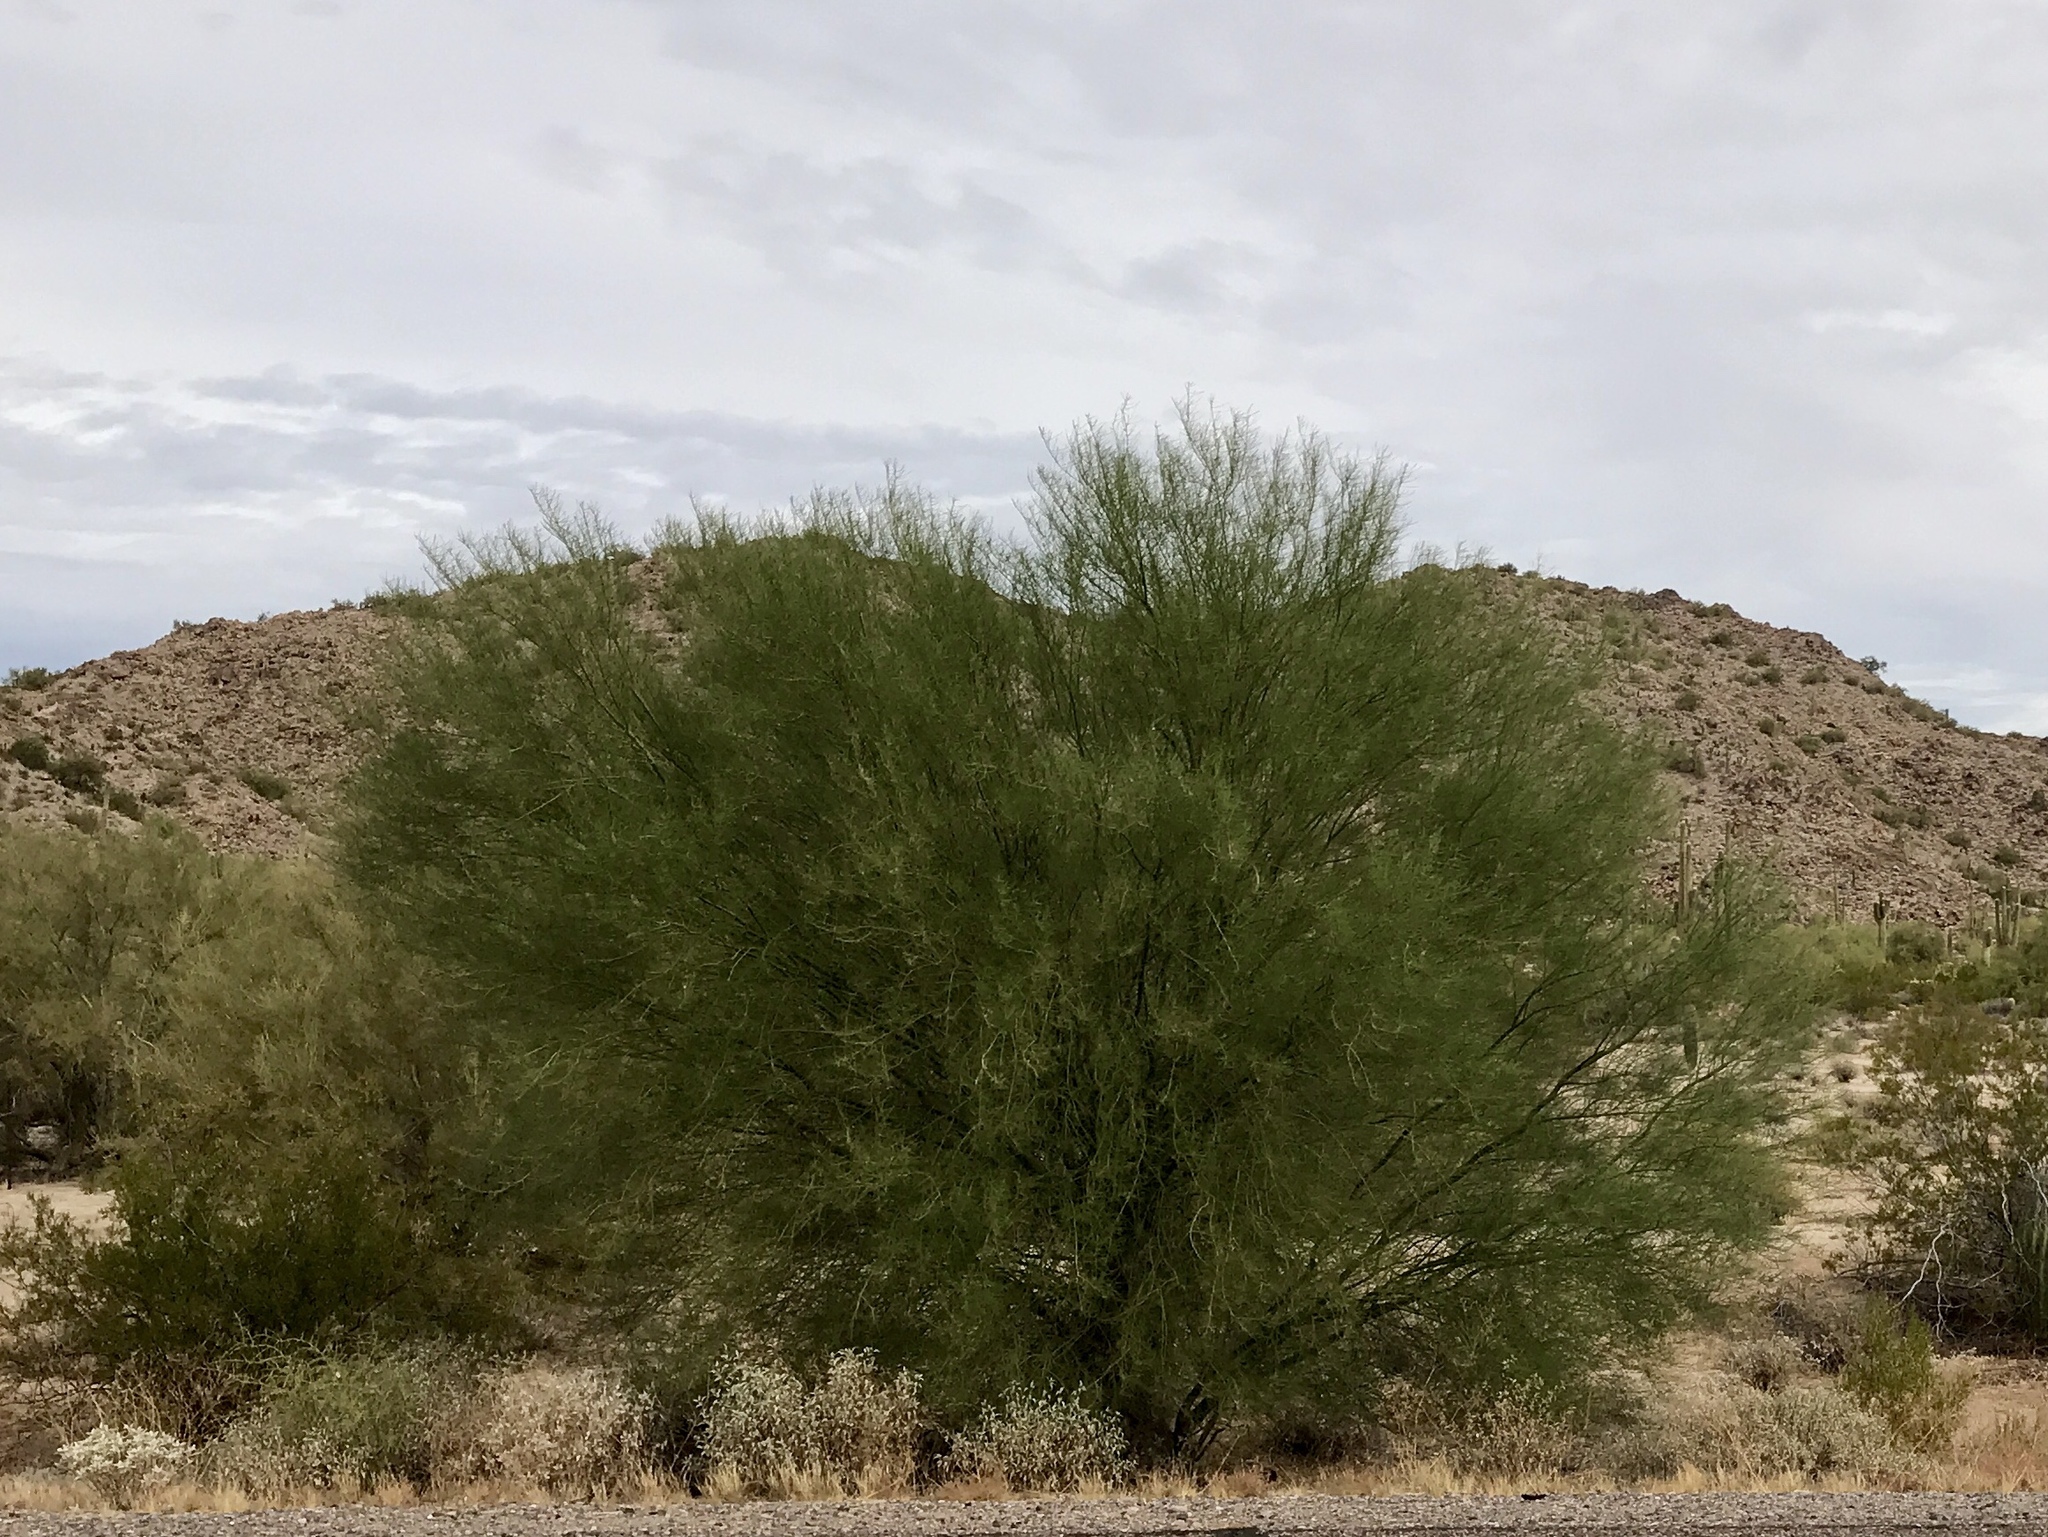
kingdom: Plantae
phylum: Tracheophyta
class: Magnoliopsida
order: Fabales
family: Fabaceae
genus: Parkinsonia
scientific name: Parkinsonia florida
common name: Blue paloverde
